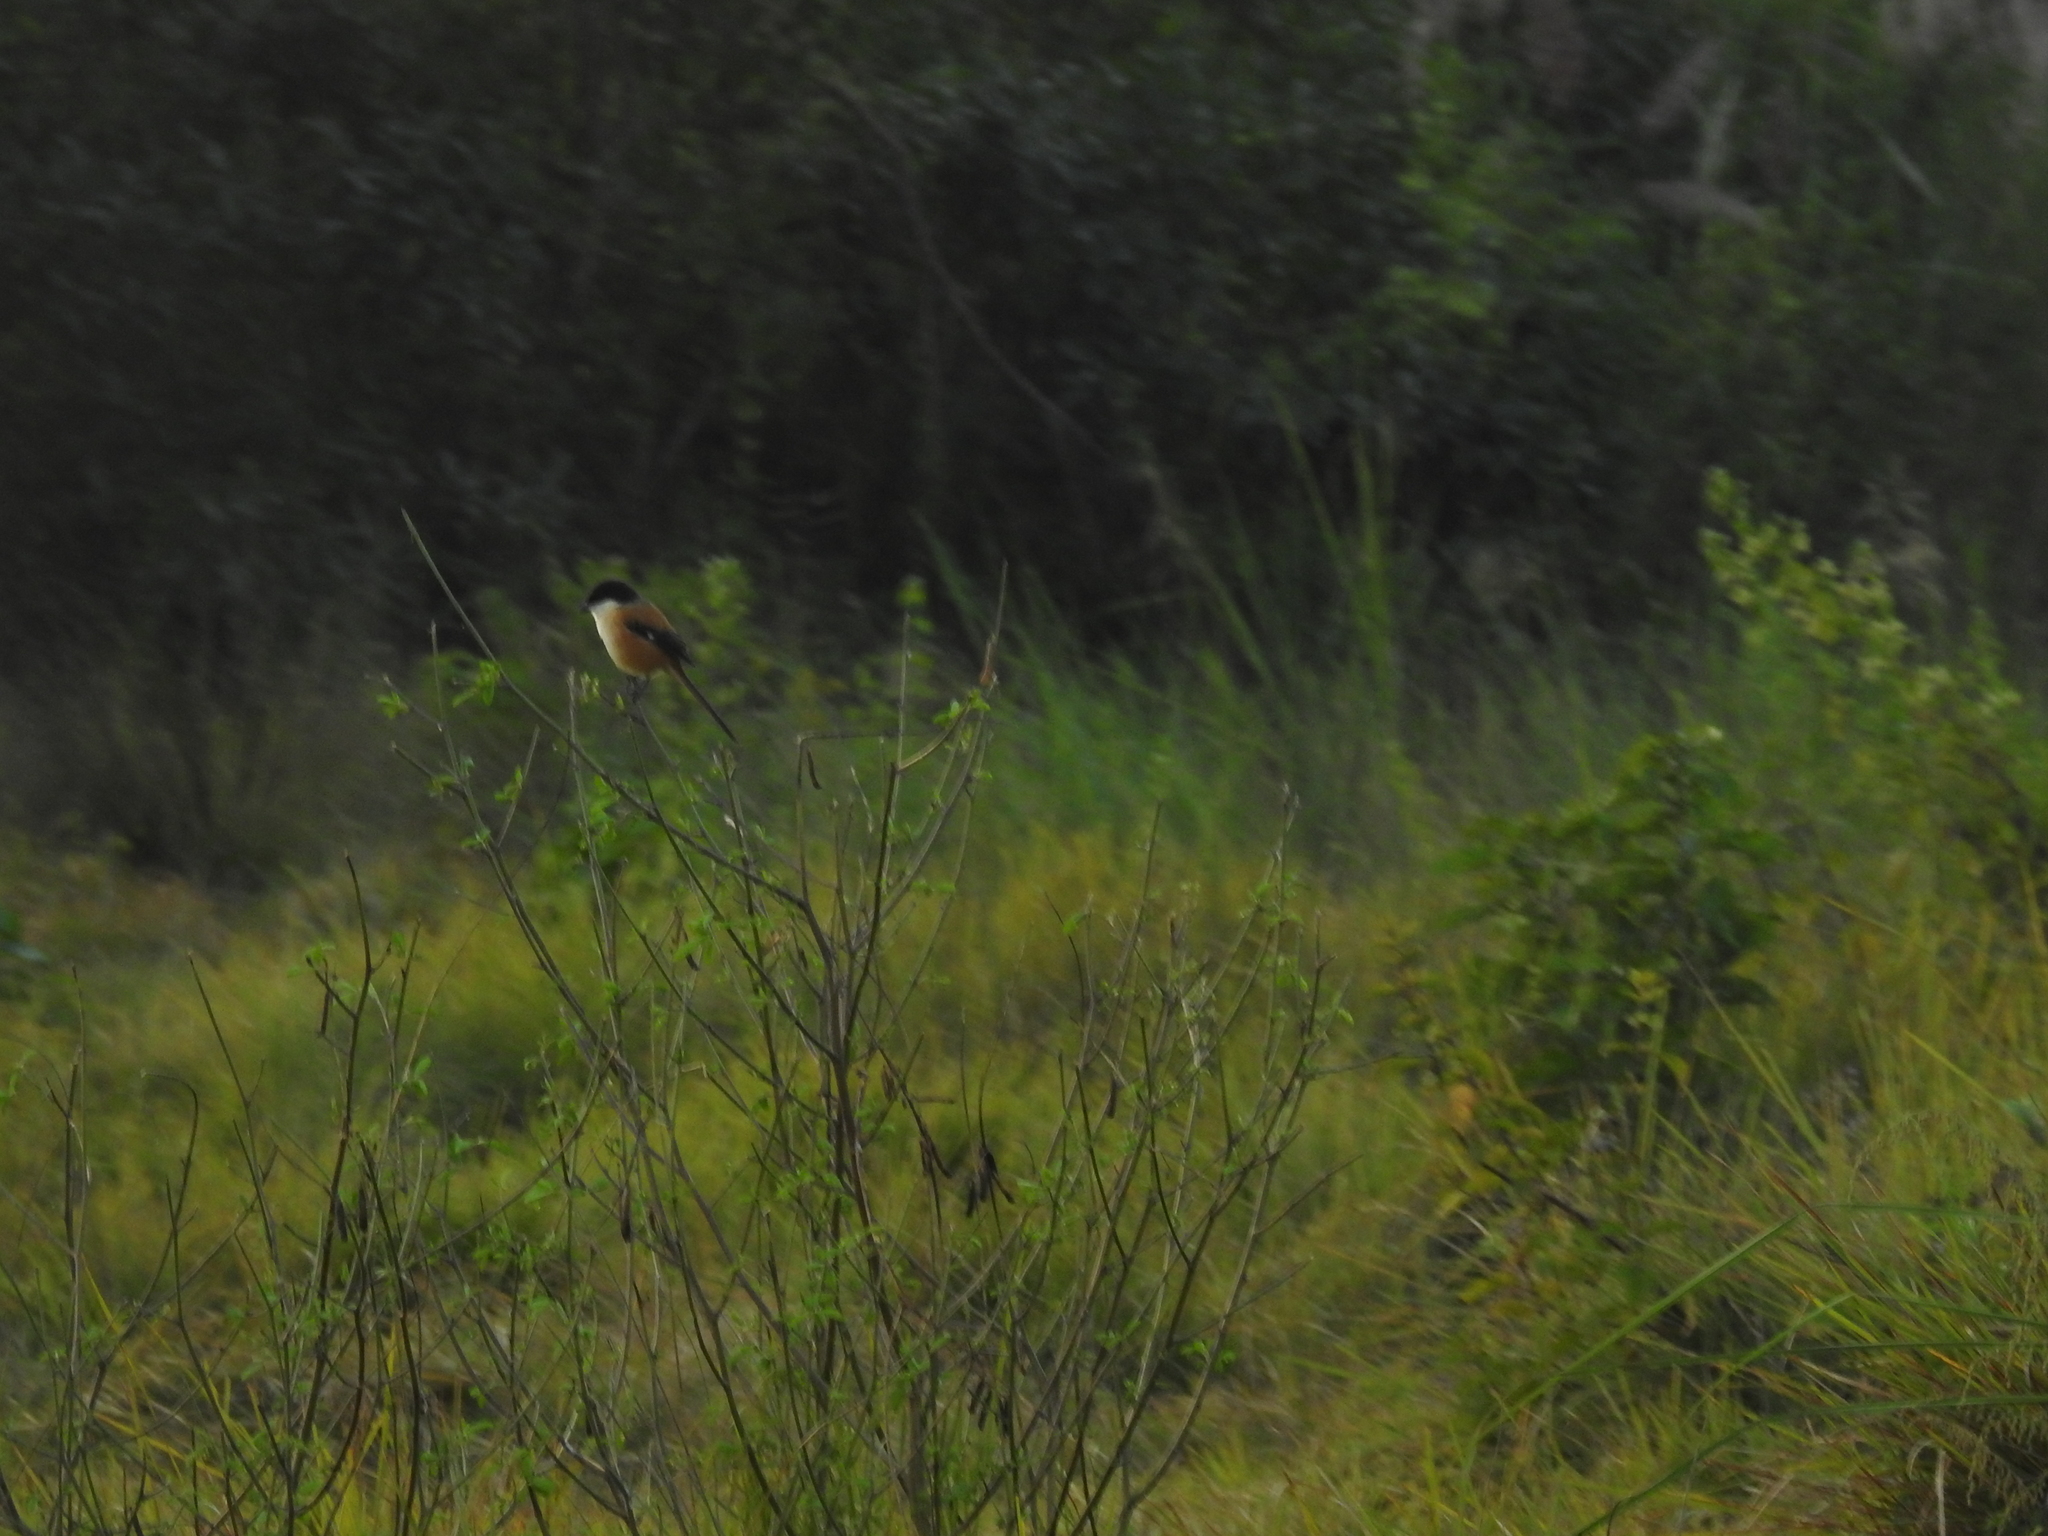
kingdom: Animalia
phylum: Chordata
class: Aves
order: Passeriformes
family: Laniidae
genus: Lanius
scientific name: Lanius schach
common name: Long-tailed shrike
